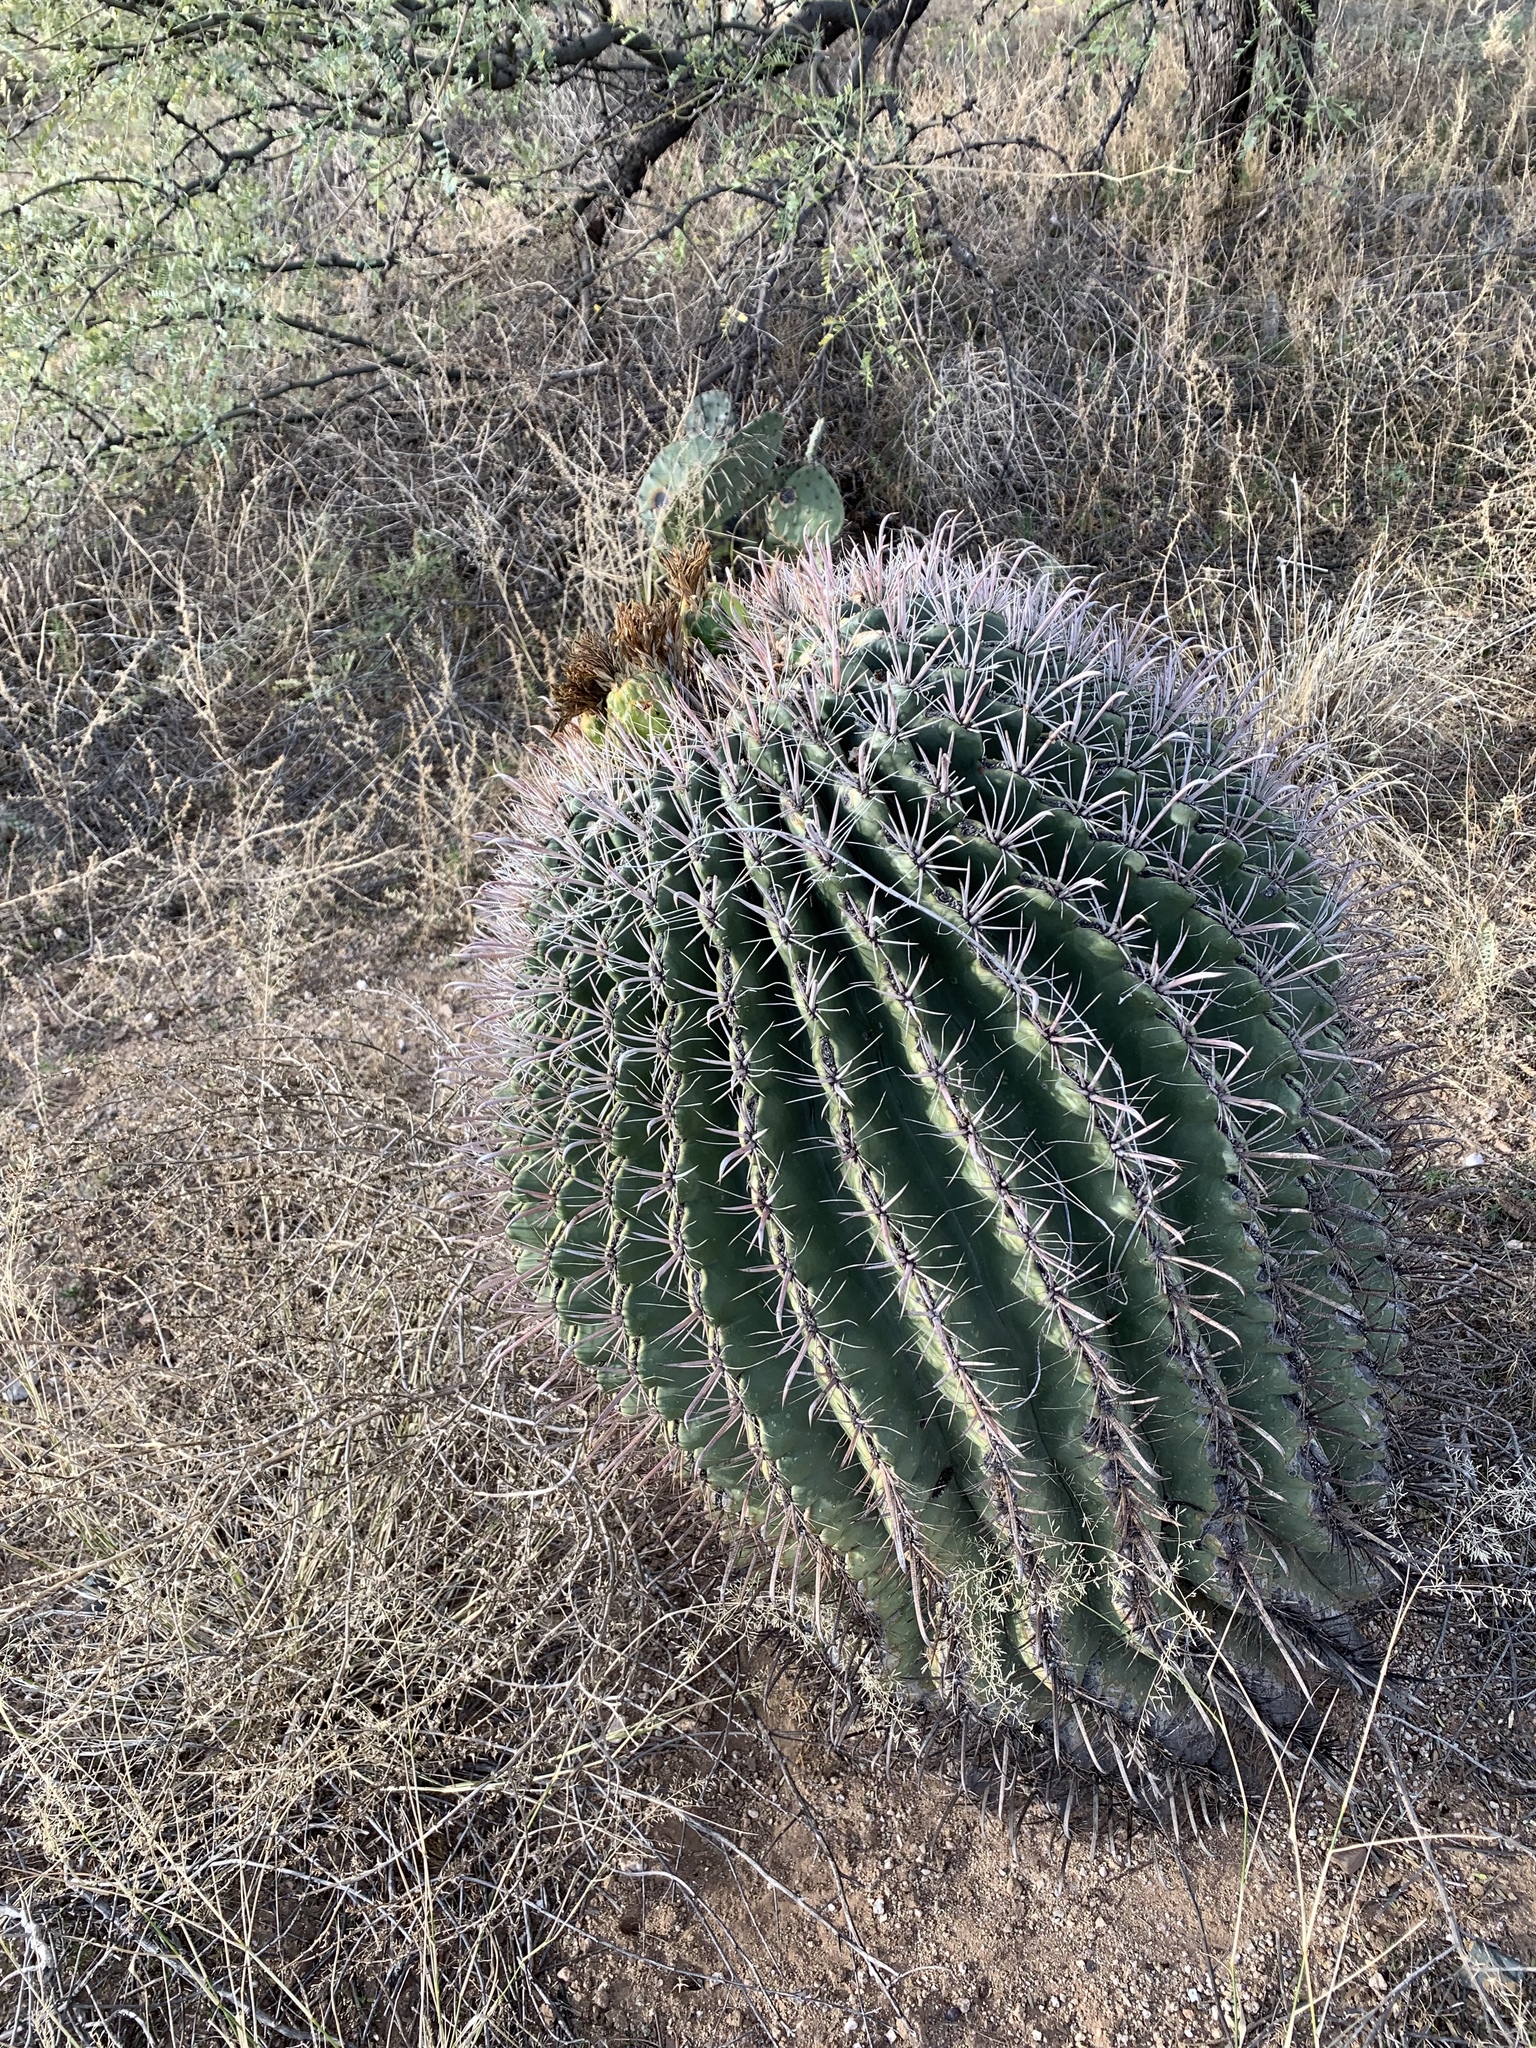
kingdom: Plantae
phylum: Tracheophyta
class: Magnoliopsida
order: Caryophyllales
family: Cactaceae
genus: Ferocactus
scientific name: Ferocactus wislizeni
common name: Candy barrel cactus
